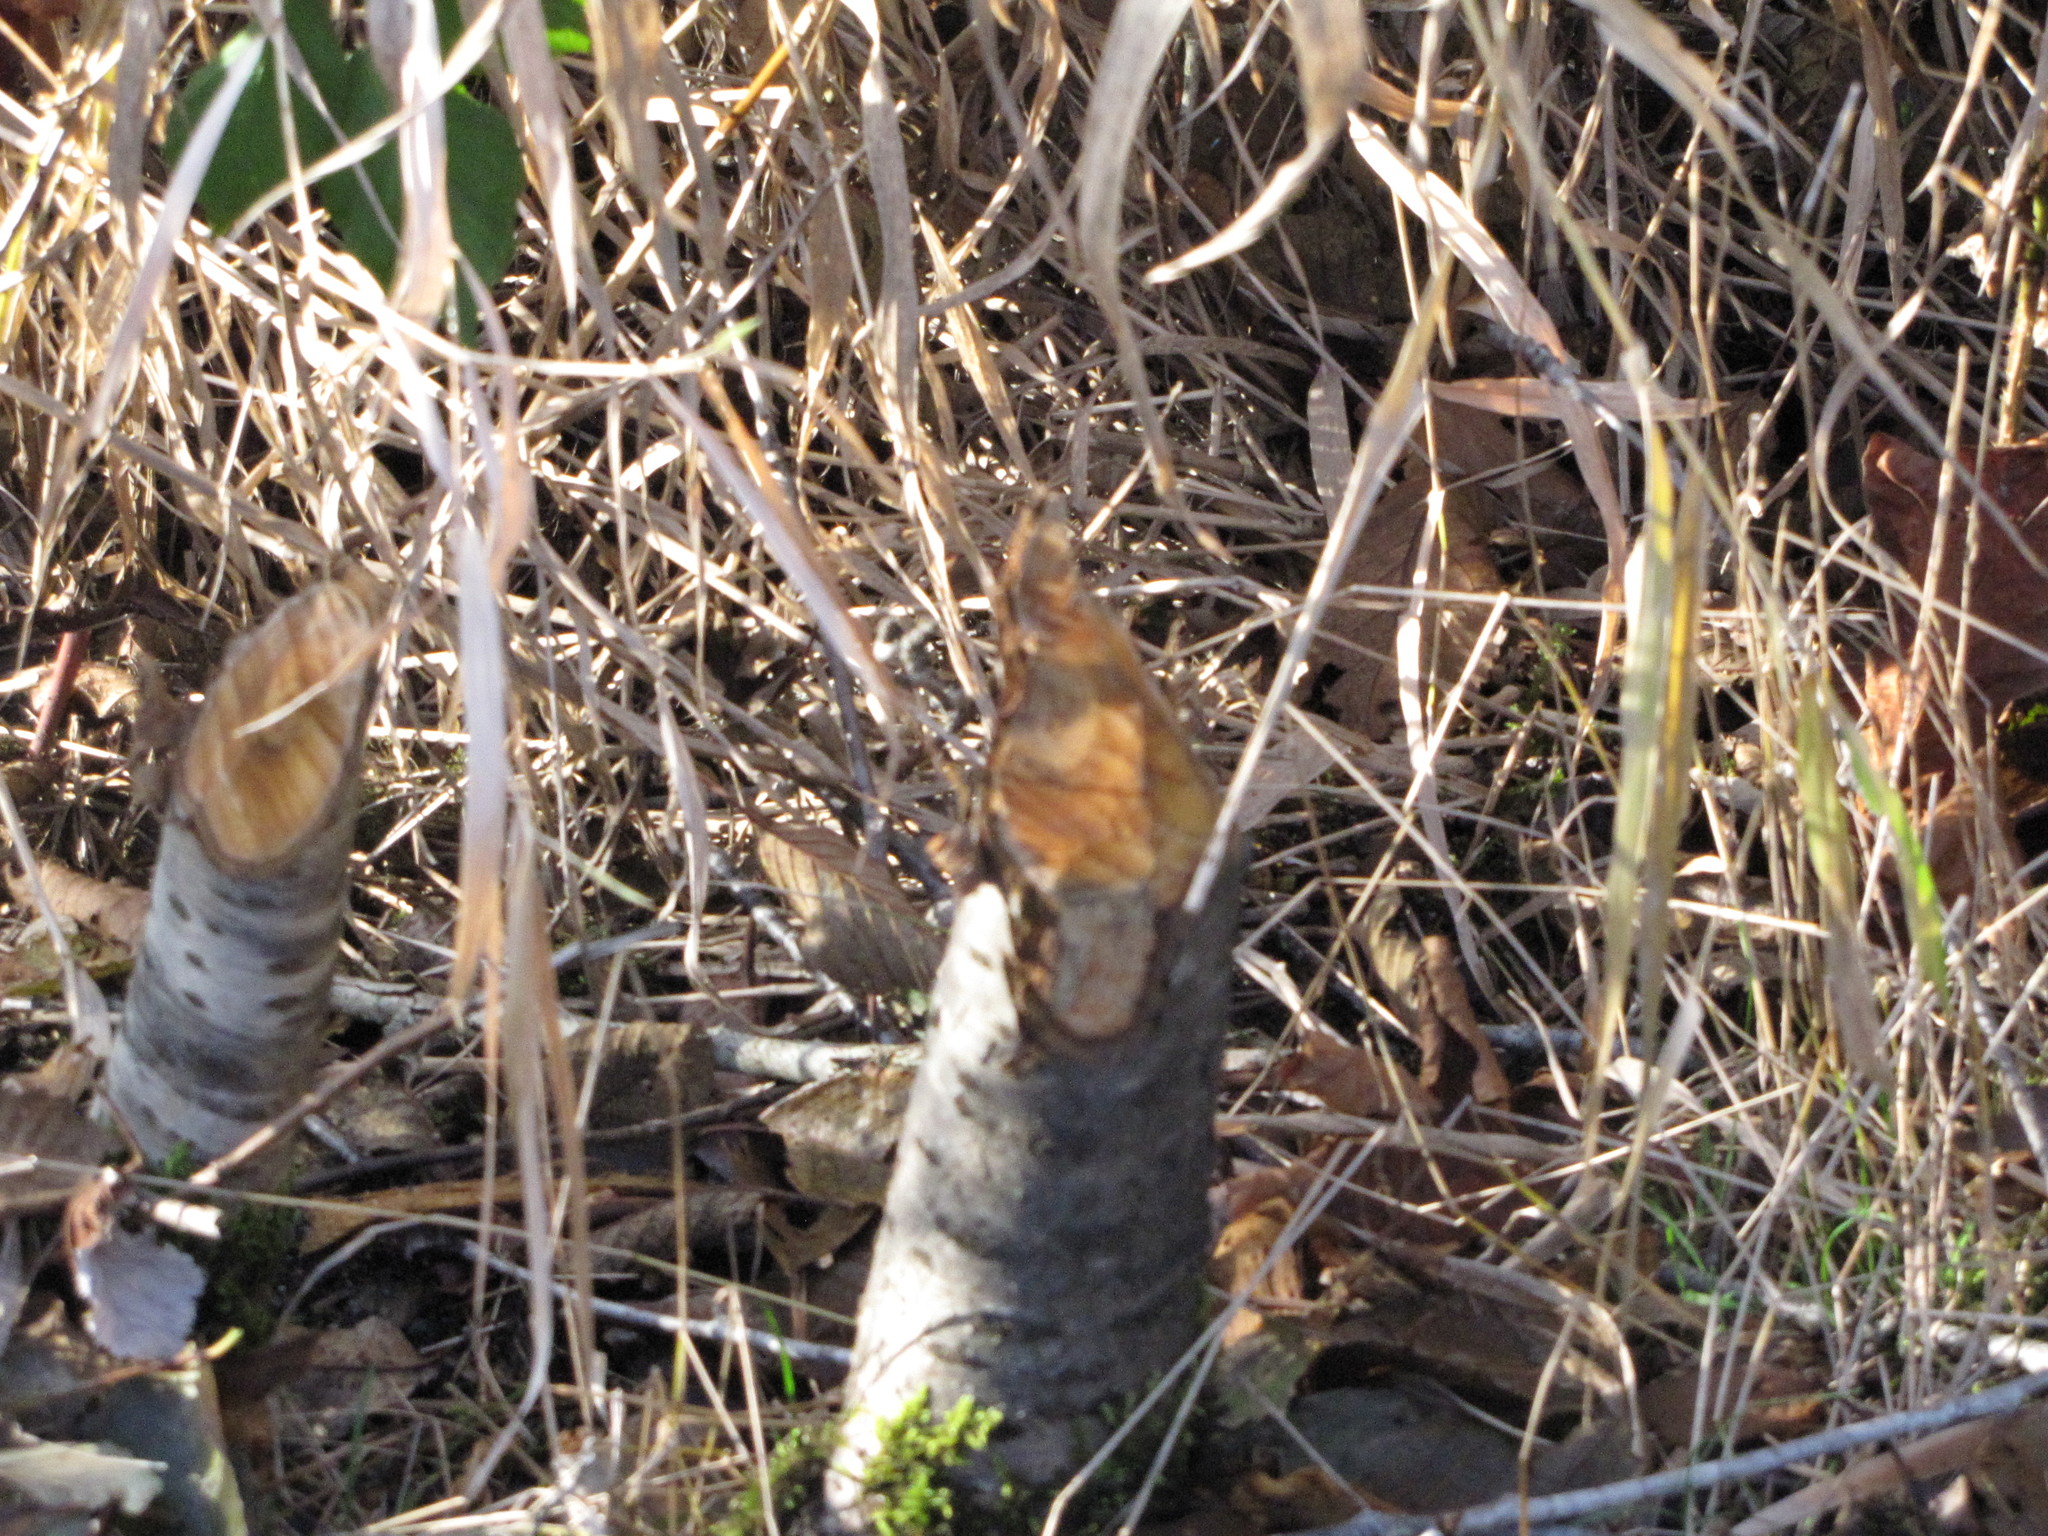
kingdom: Animalia
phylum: Chordata
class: Mammalia
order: Rodentia
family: Castoridae
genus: Castor
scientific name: Castor canadensis
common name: American beaver
